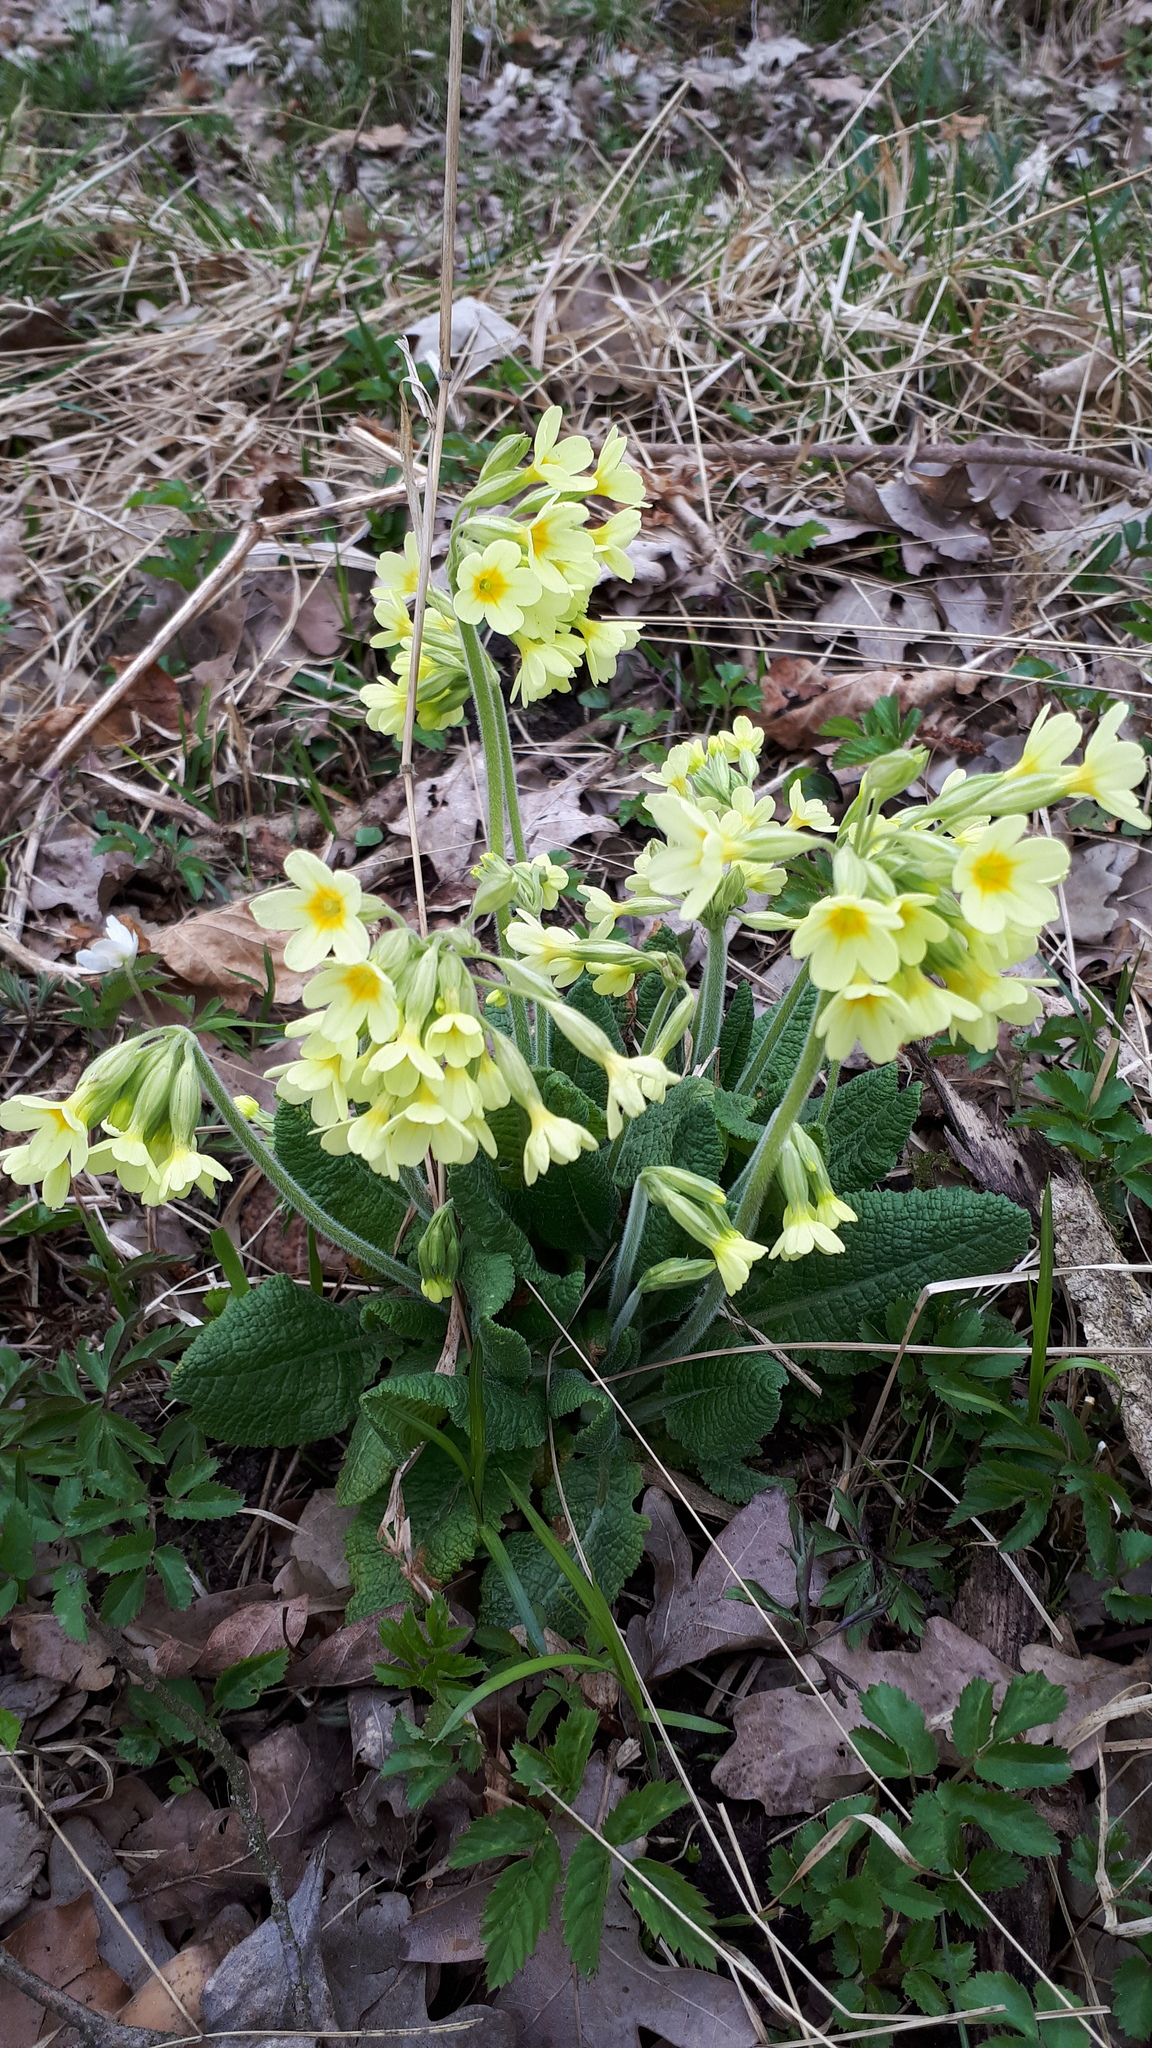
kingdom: Plantae
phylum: Tracheophyta
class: Magnoliopsida
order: Ericales
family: Primulaceae
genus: Primula
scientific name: Primula elatior
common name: Oxlip
